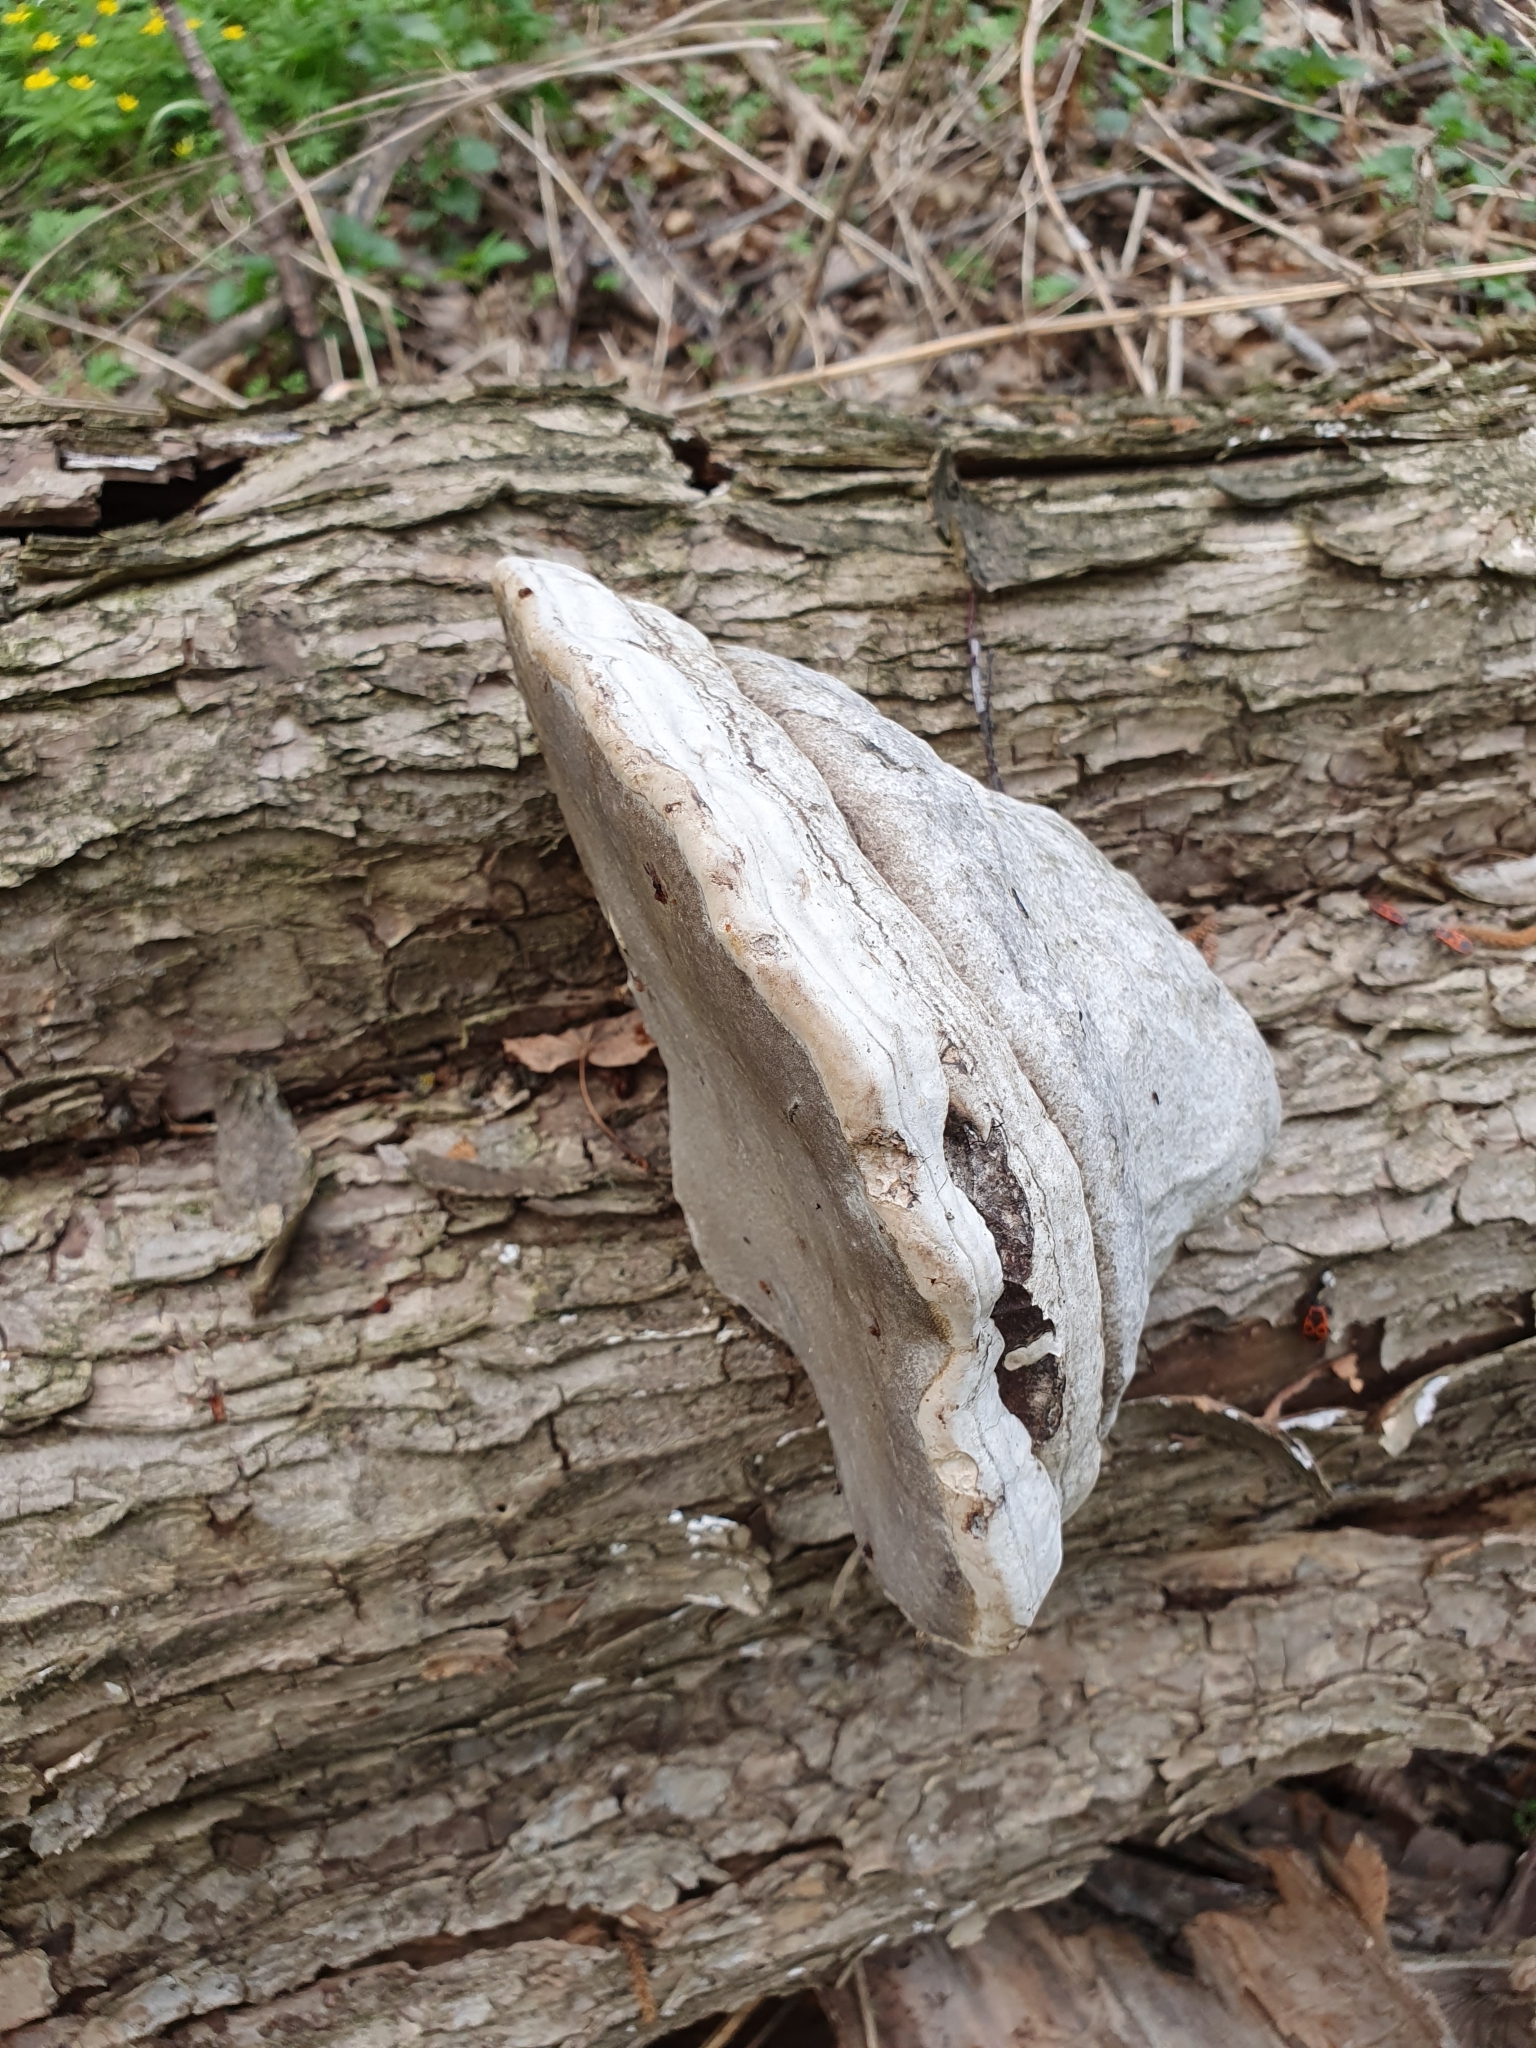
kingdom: Fungi
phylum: Basidiomycota
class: Agaricomycetes
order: Polyporales
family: Polyporaceae
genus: Fomes
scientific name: Fomes fomentarius
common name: Hoof fungus
